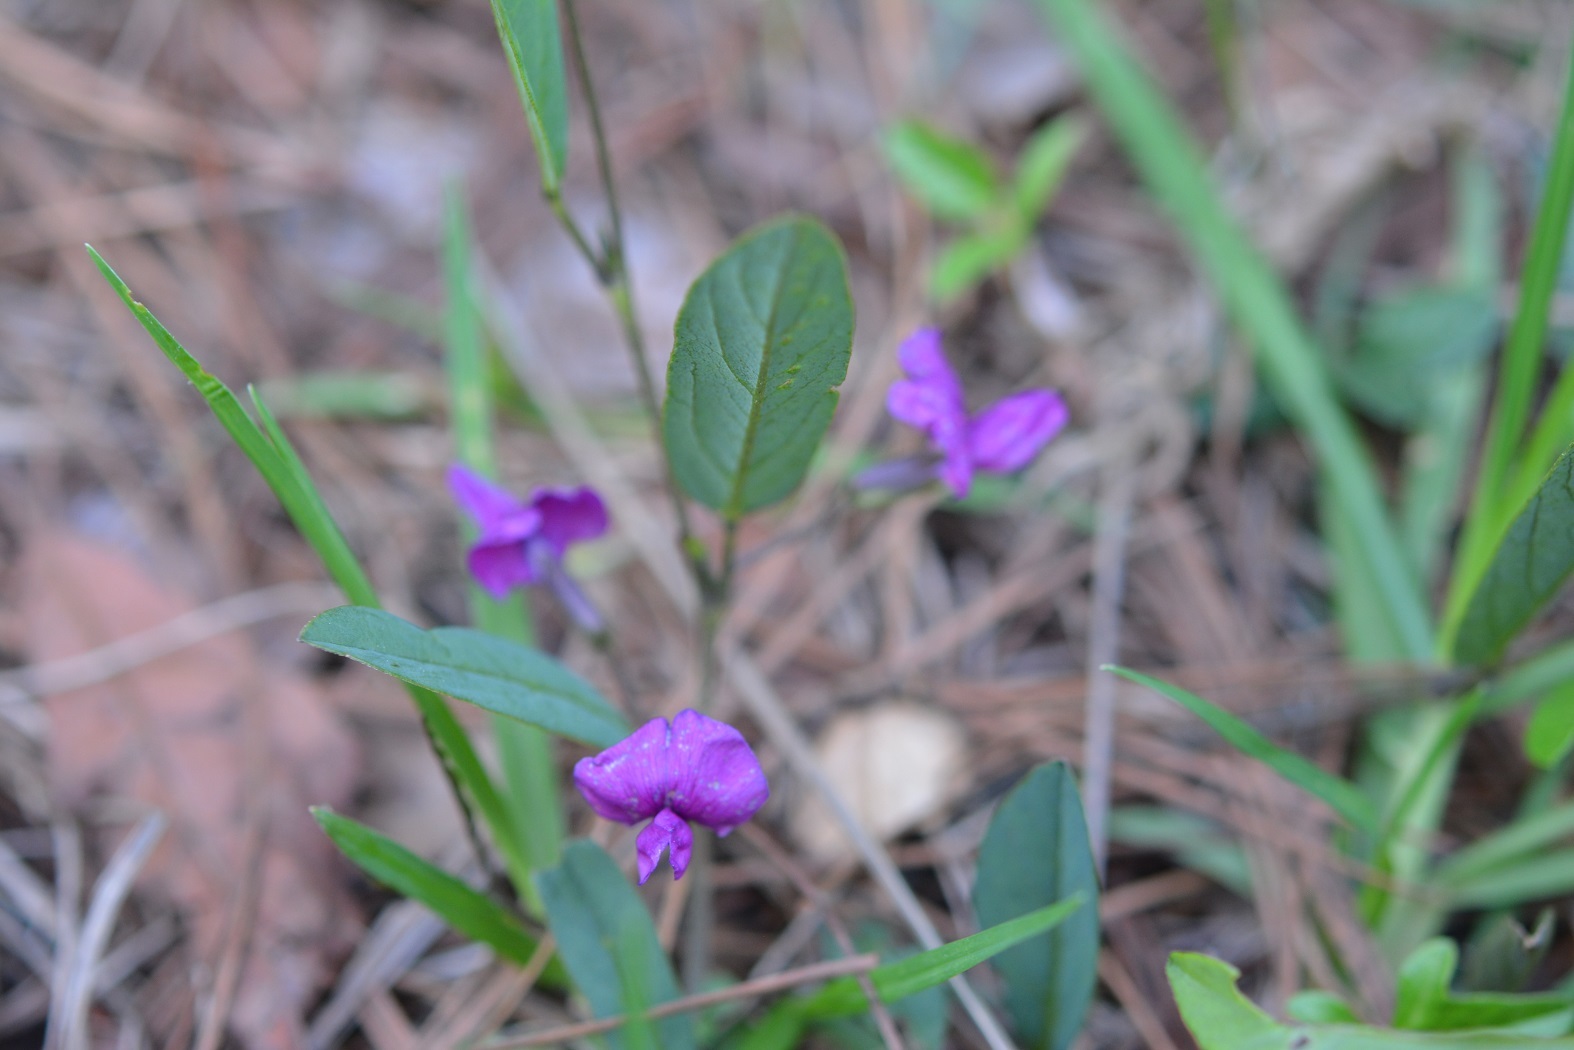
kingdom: Plantae
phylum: Tracheophyta
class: Magnoliopsida
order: Fabales
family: Fabaceae
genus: Cologania
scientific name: Cologania broussonetii
